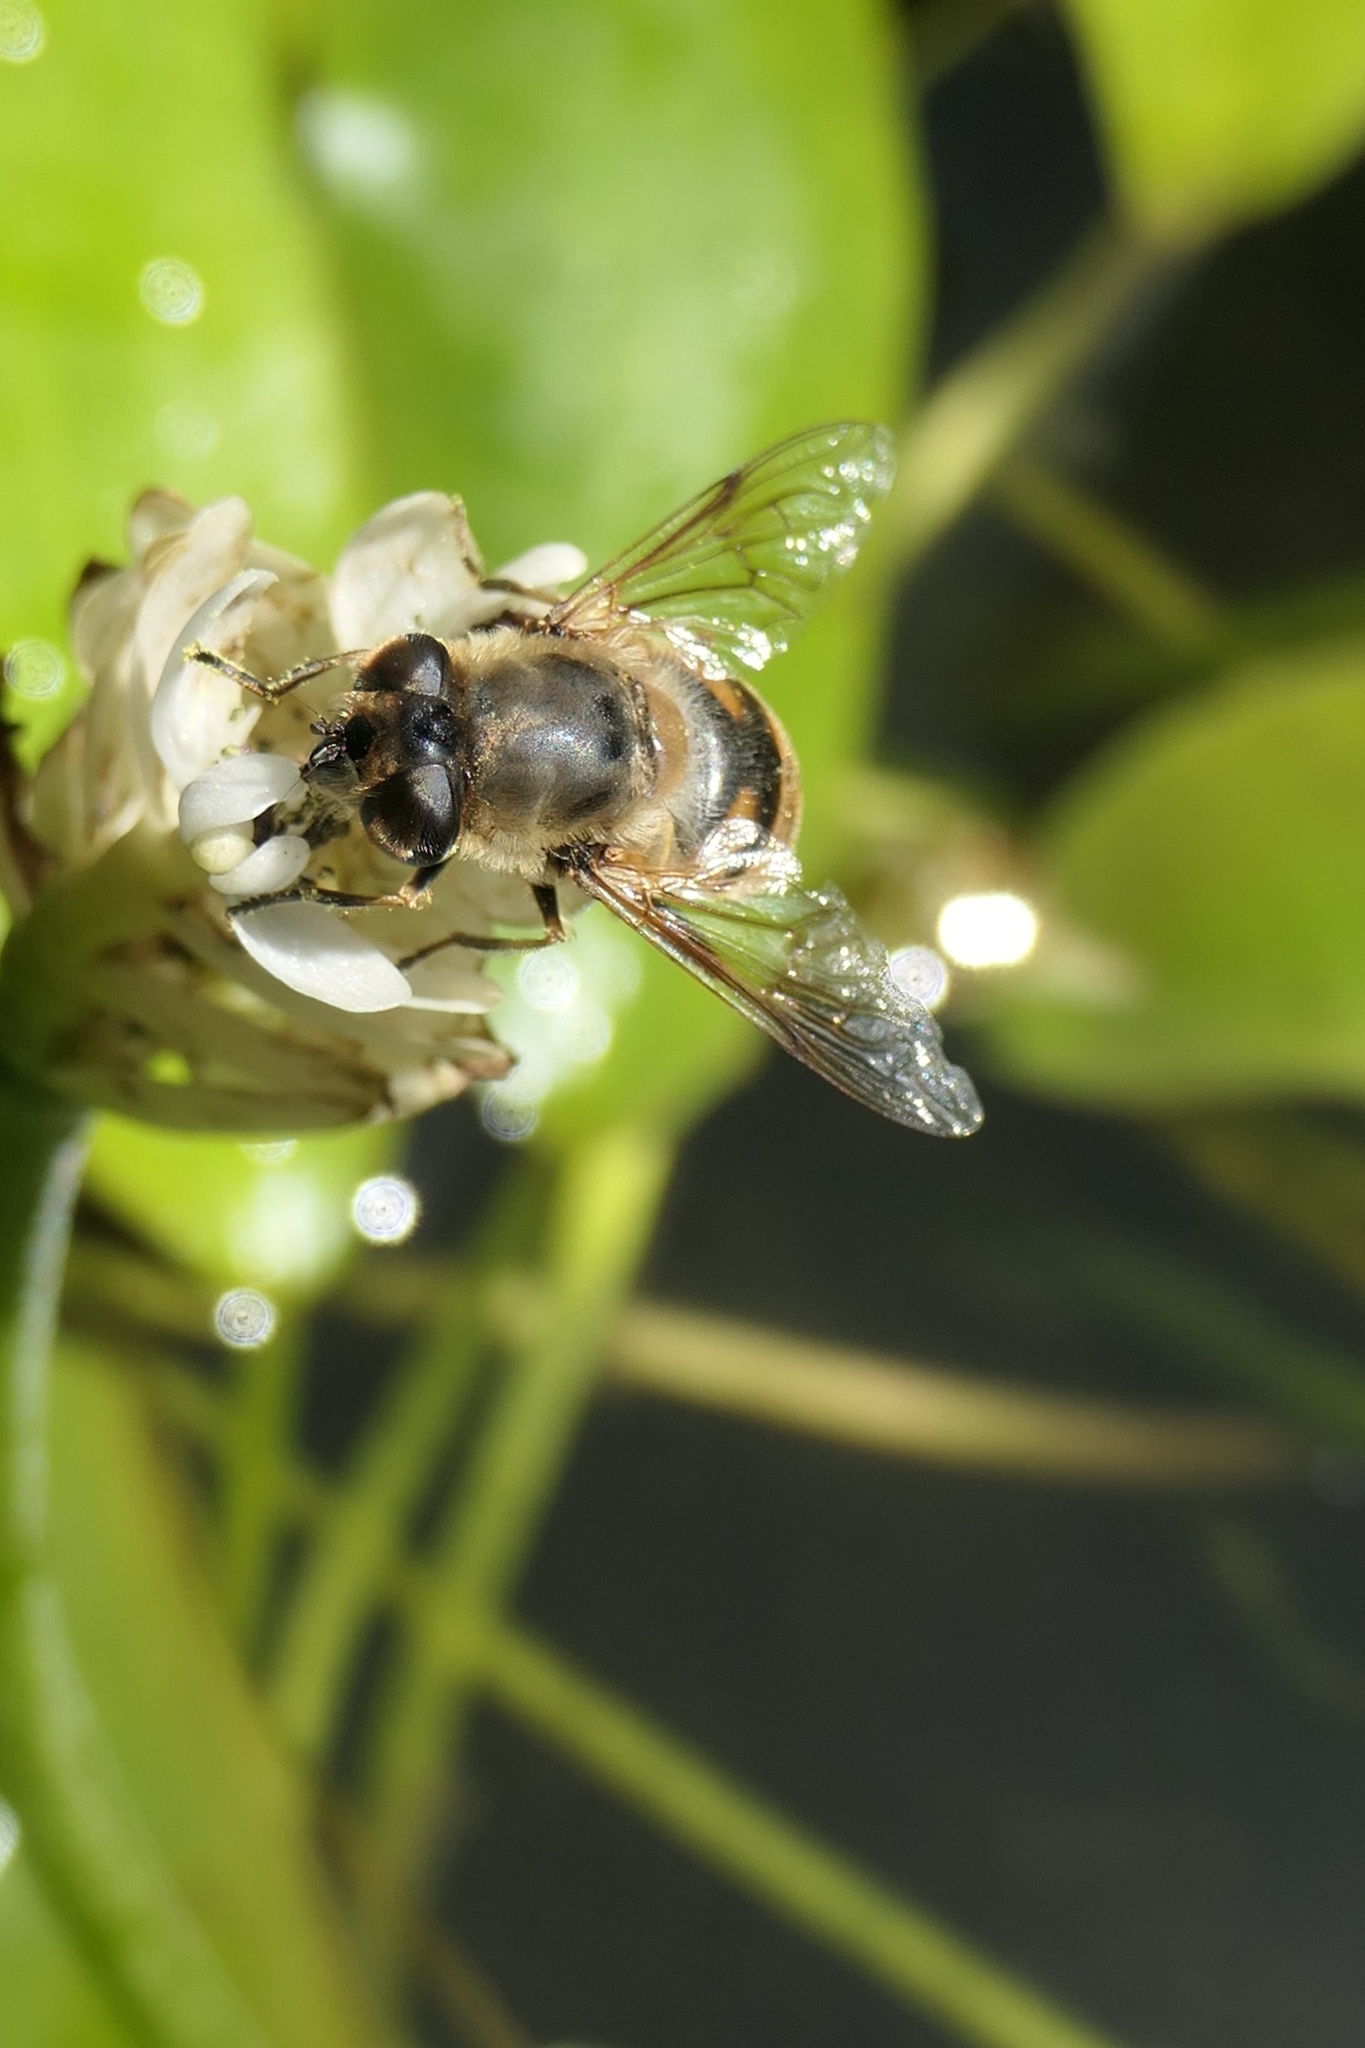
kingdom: Animalia
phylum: Arthropoda
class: Insecta
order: Diptera
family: Syrphidae
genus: Eristalis
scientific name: Eristalis tenax
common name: Drone fly
